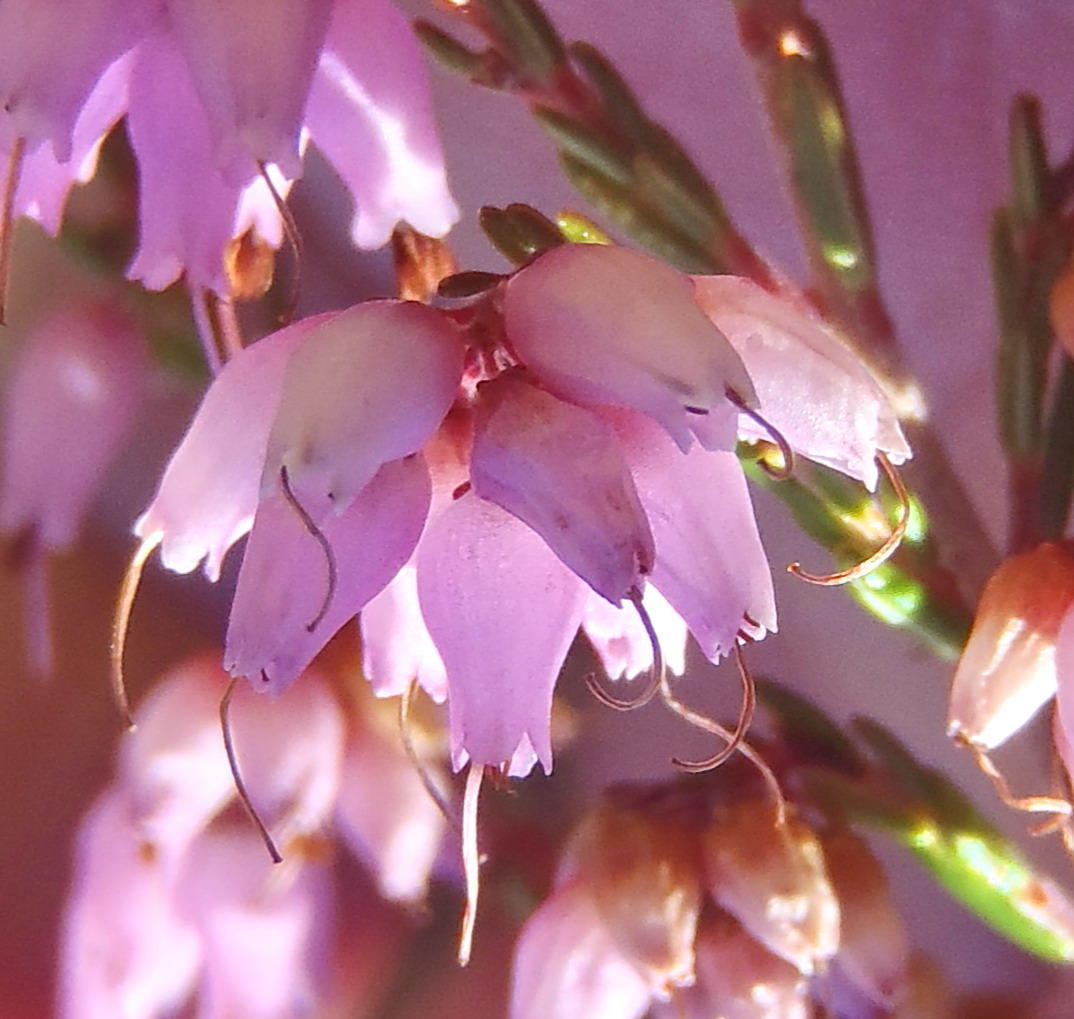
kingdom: Plantae
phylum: Tracheophyta
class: Magnoliopsida
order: Ericales
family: Ericaceae
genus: Erica
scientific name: Erica rosacea
